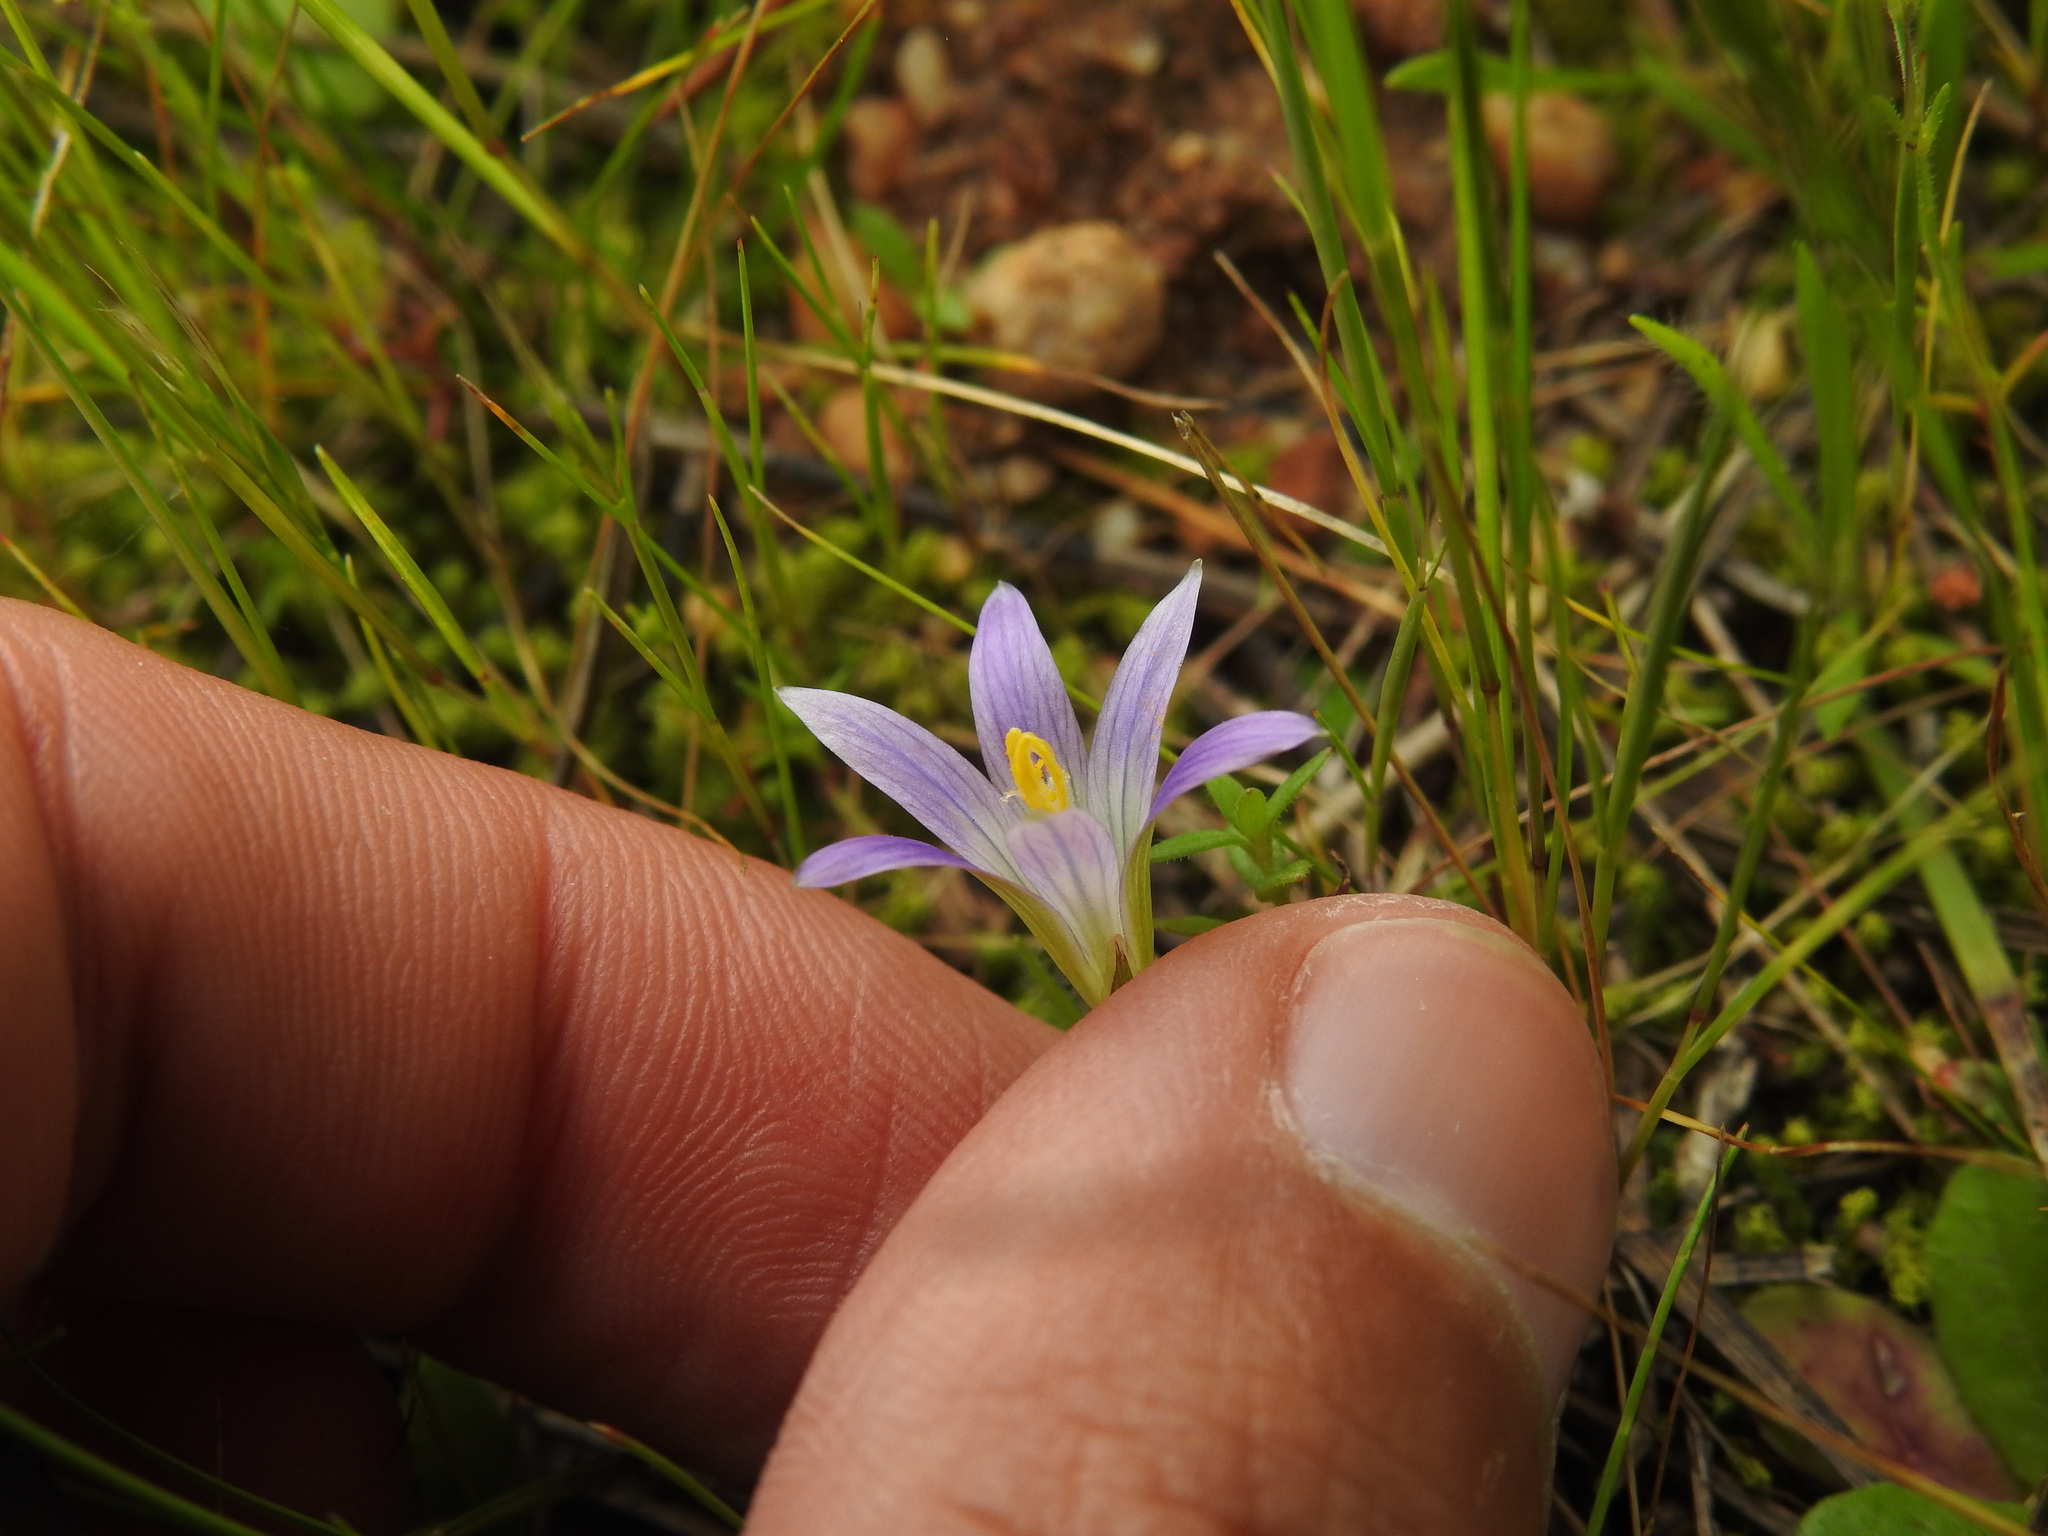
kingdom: Plantae
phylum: Tracheophyta
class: Liliopsida
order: Asparagales
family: Iridaceae
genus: Romulea
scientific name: Romulea ramiflora
